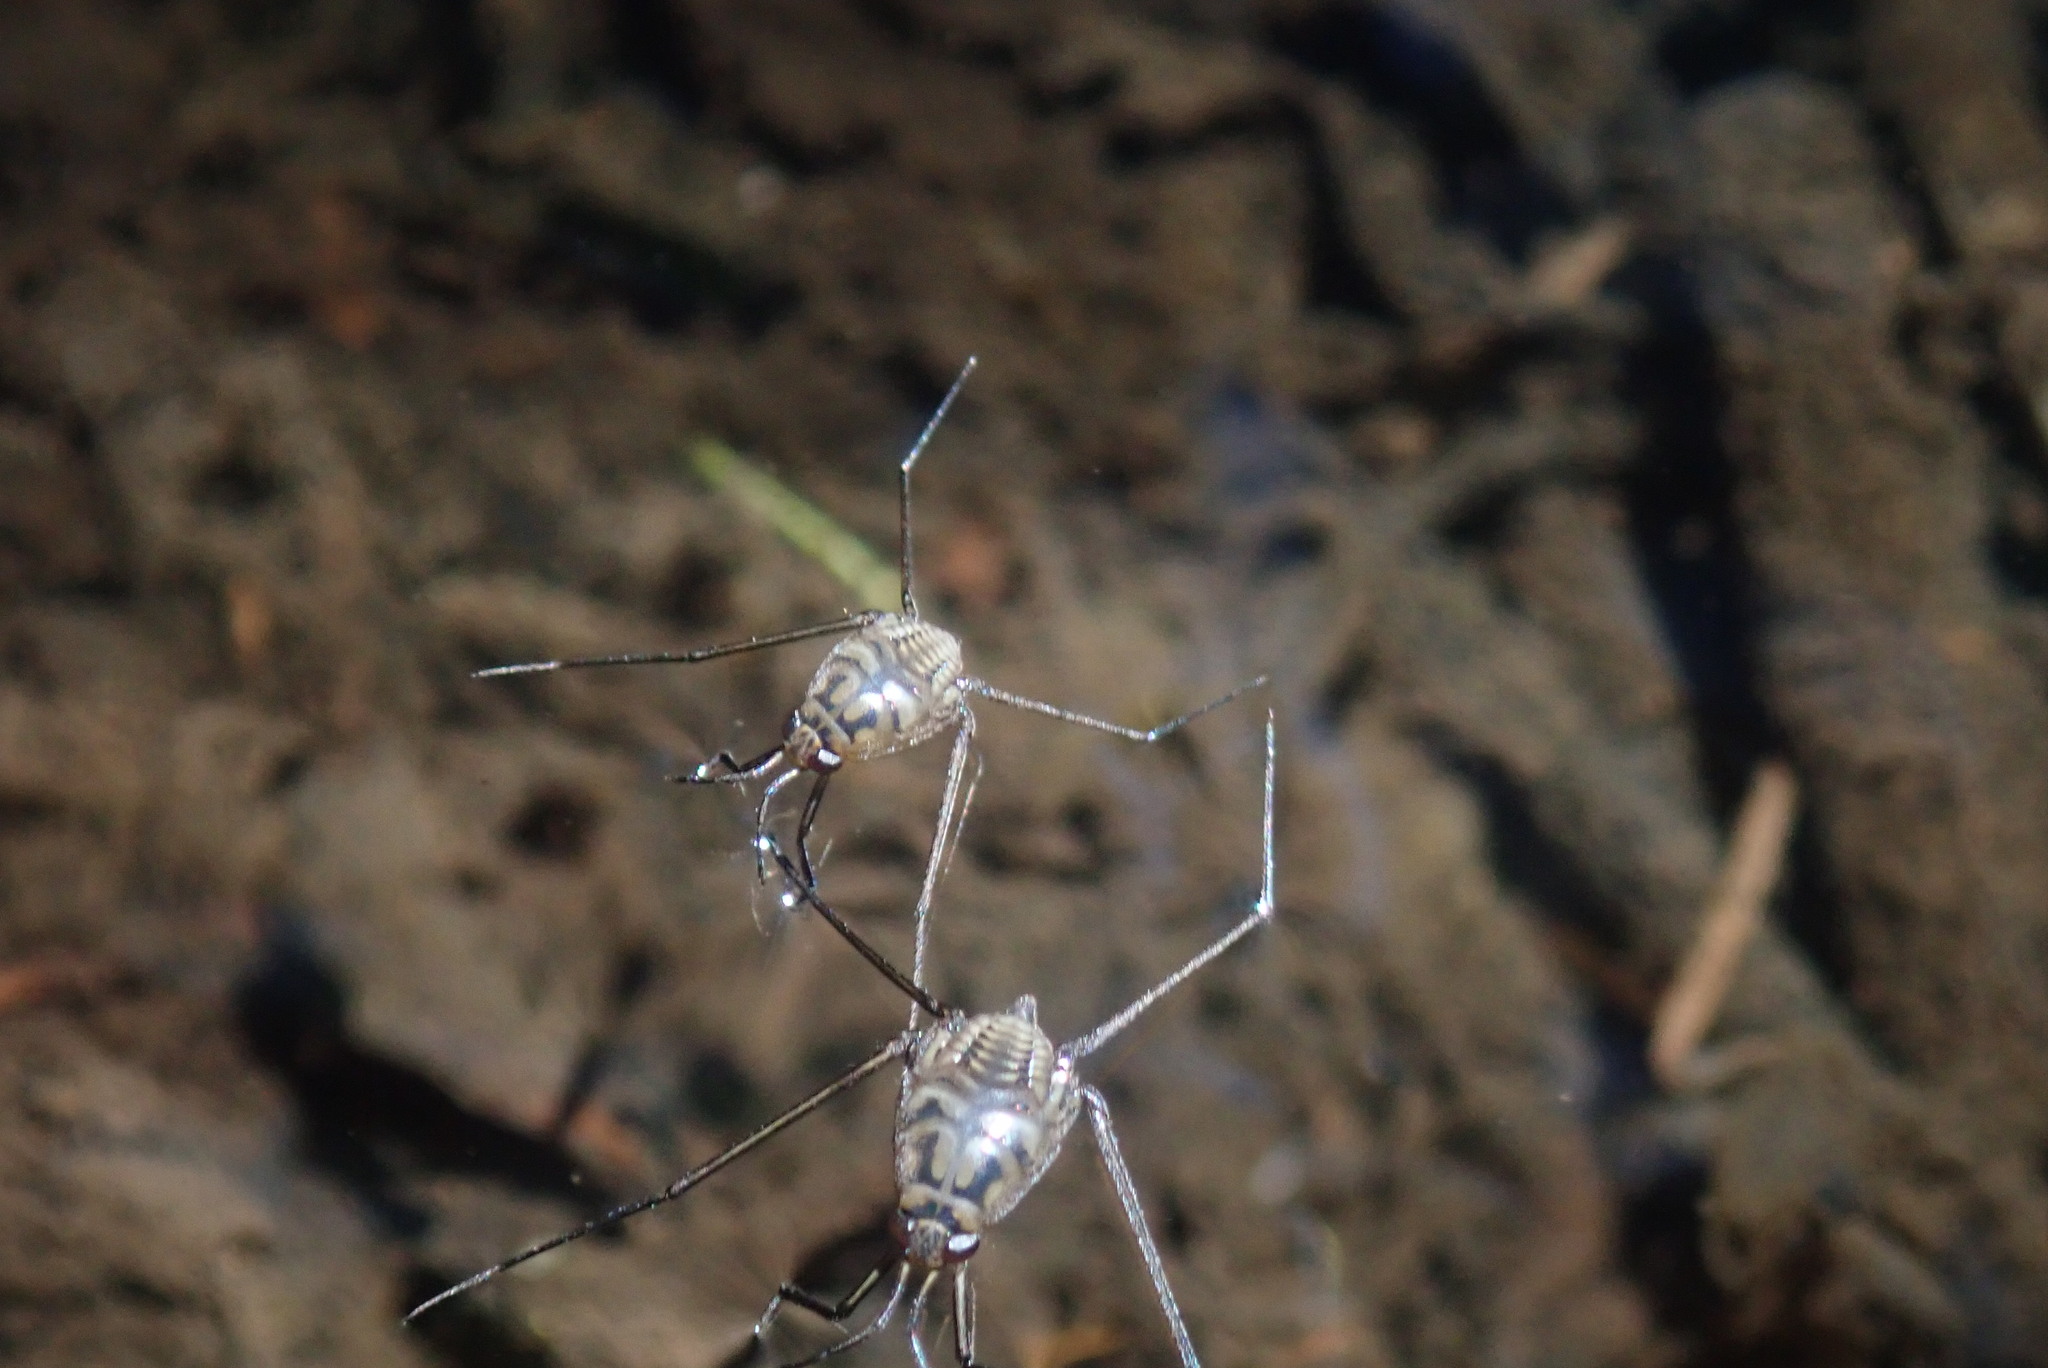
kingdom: Animalia
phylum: Arthropoda
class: Insecta
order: Hemiptera
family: Gerridae
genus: Eurymetra
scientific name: Eurymetra natalensis
